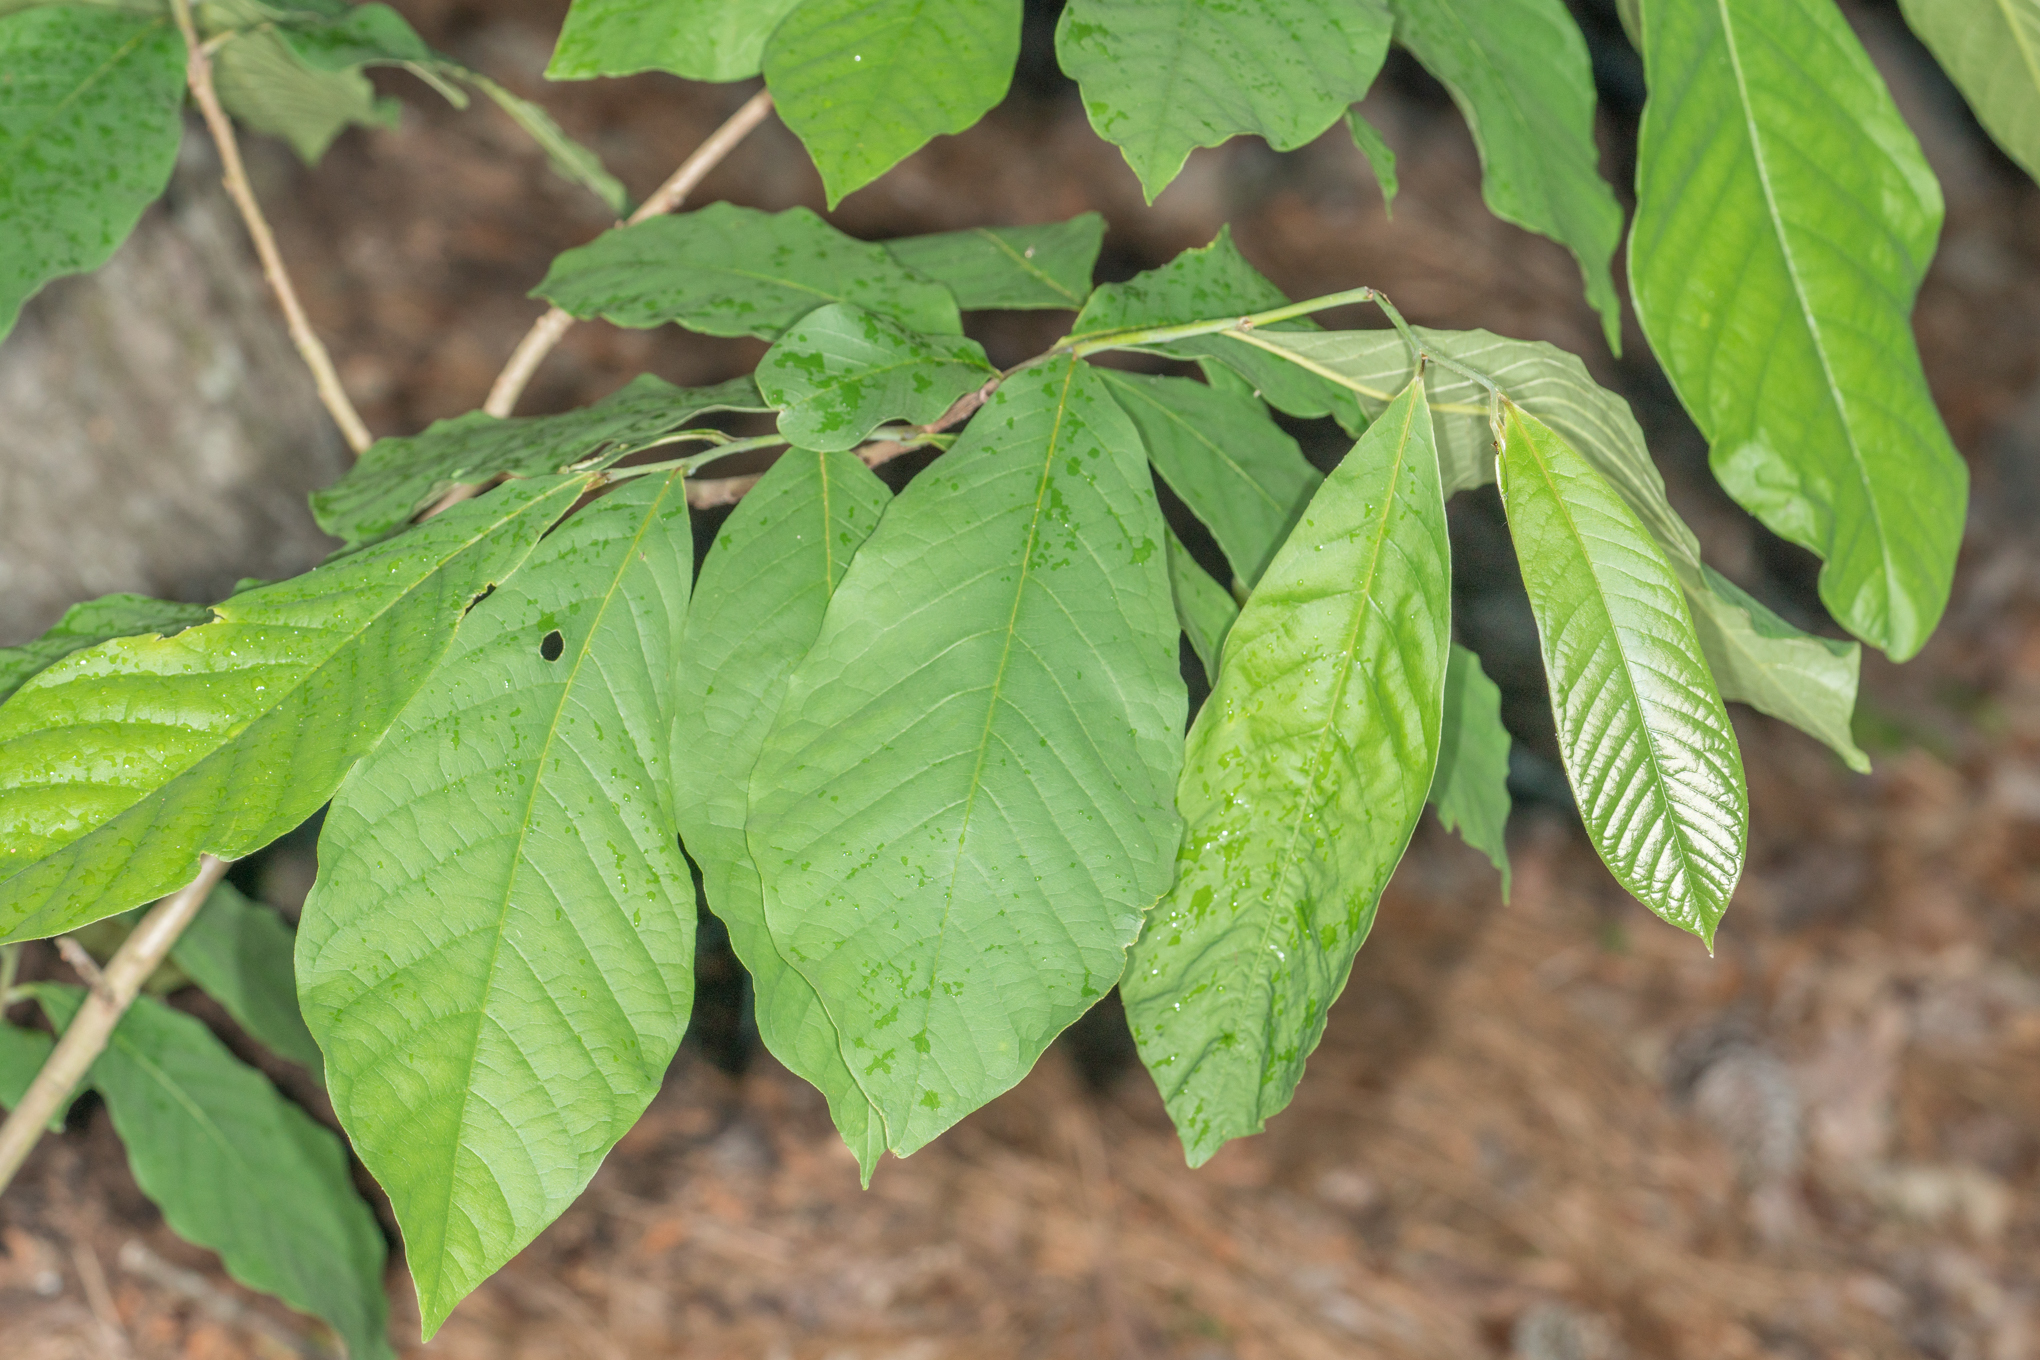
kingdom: Plantae
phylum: Tracheophyta
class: Magnoliopsida
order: Magnoliales
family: Annonaceae
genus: Asimina
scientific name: Asimina triloba
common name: Dog-banana
